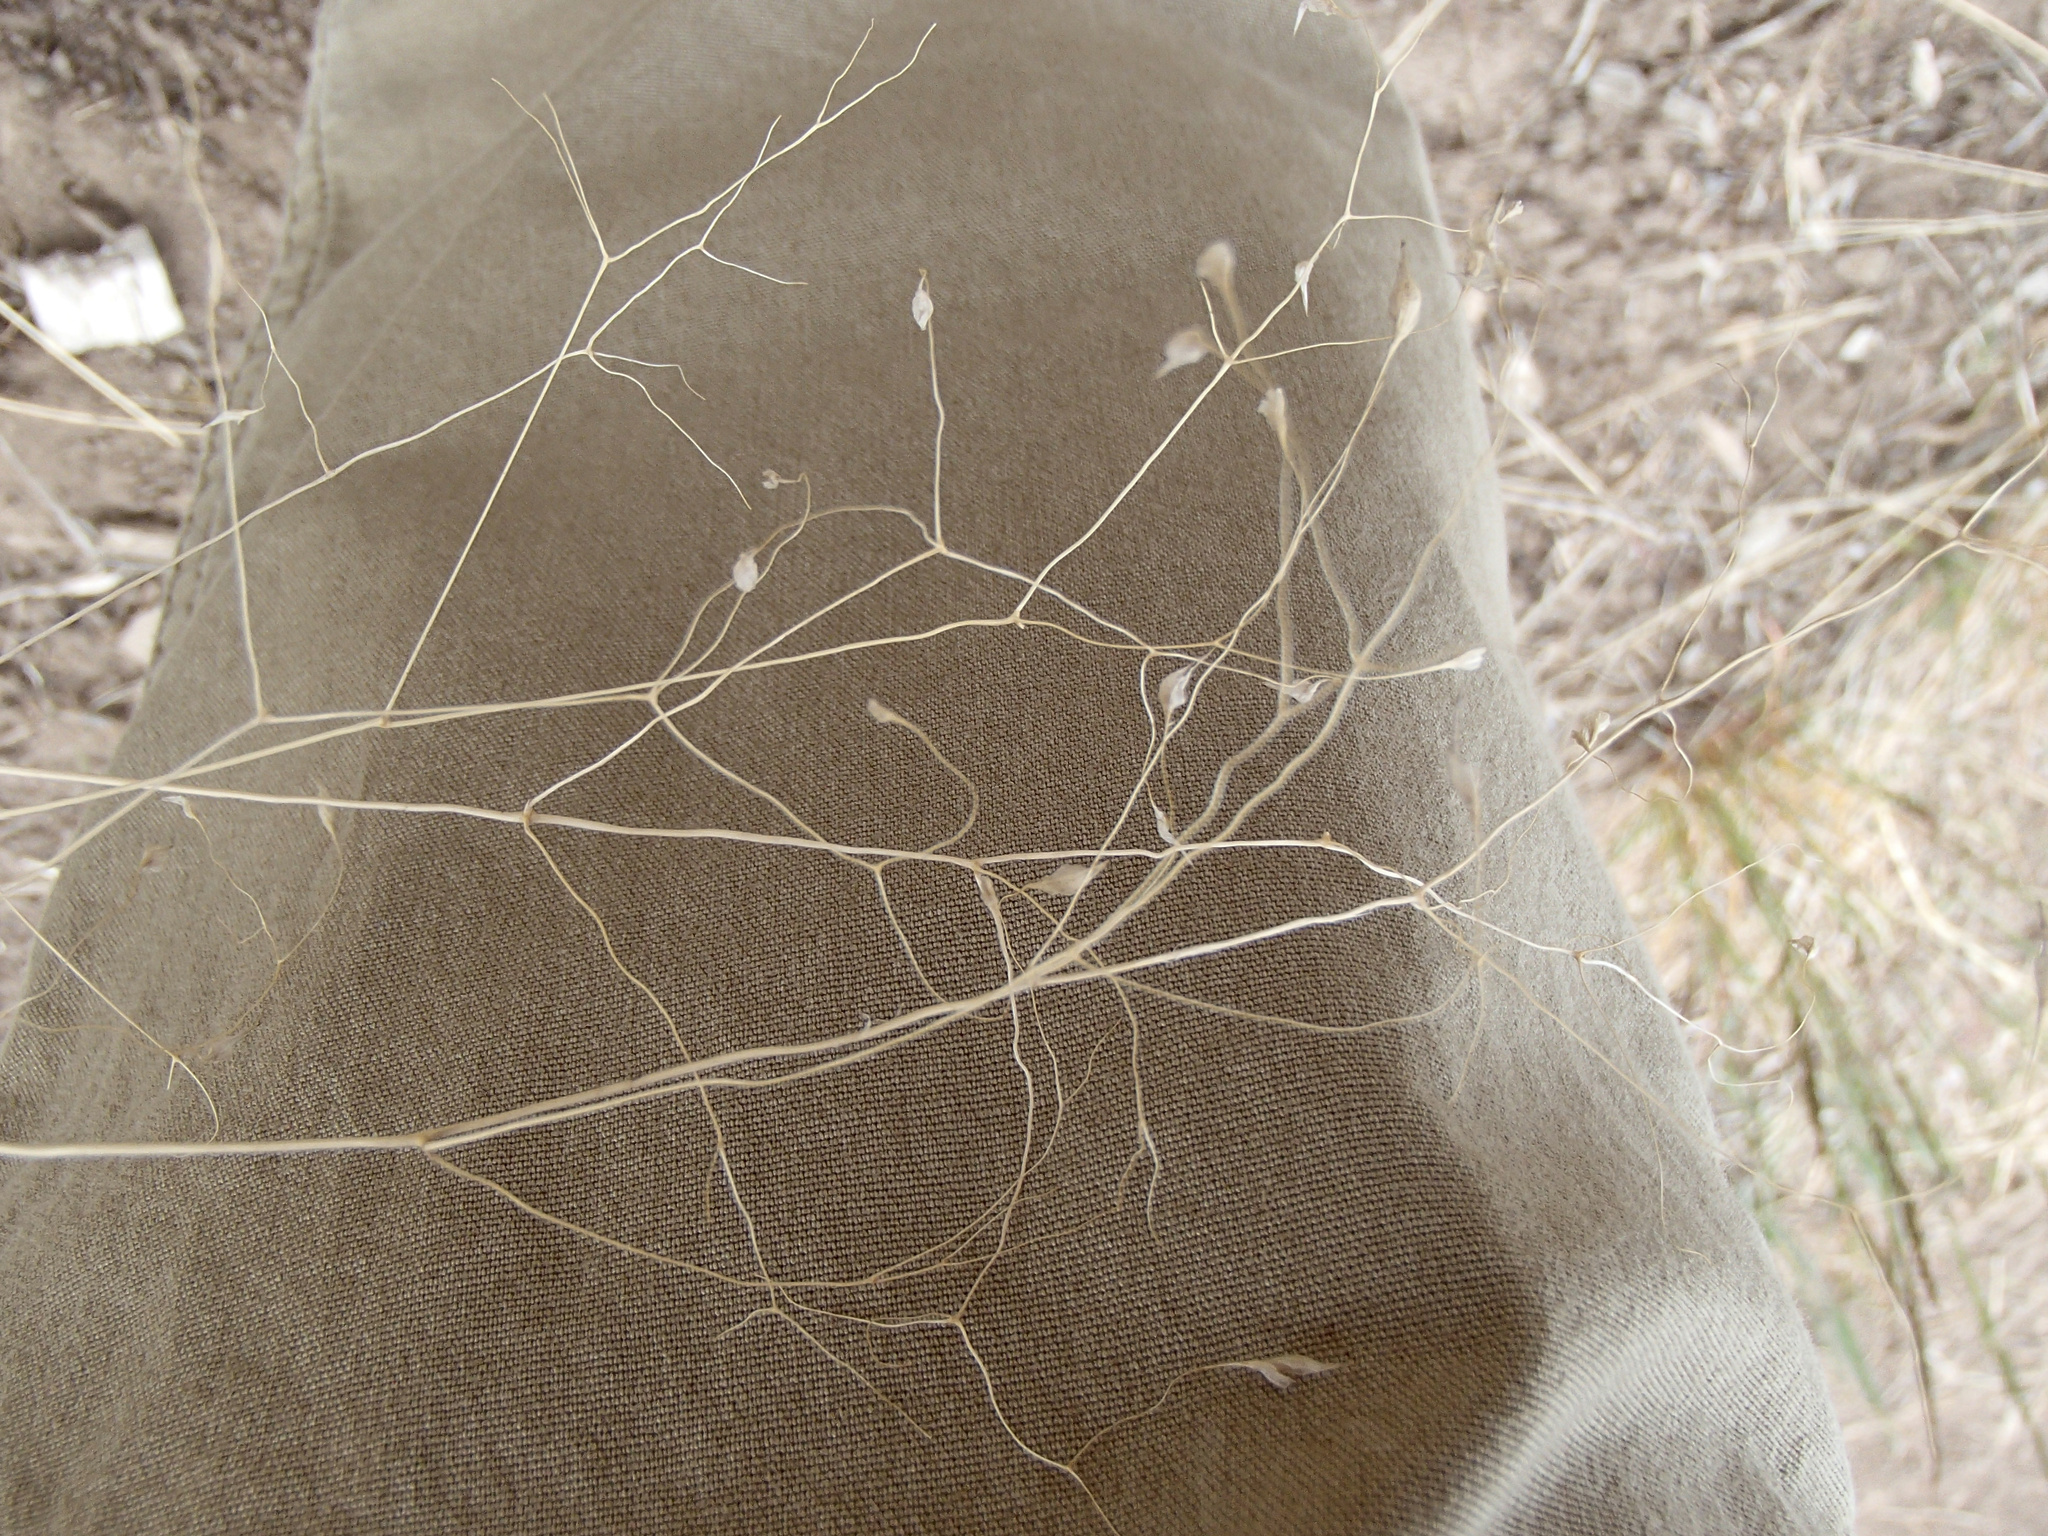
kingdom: Plantae
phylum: Tracheophyta
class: Liliopsida
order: Poales
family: Poaceae
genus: Eriocoma
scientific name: Eriocoma hymenoides
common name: Indian mountain ricegrass
